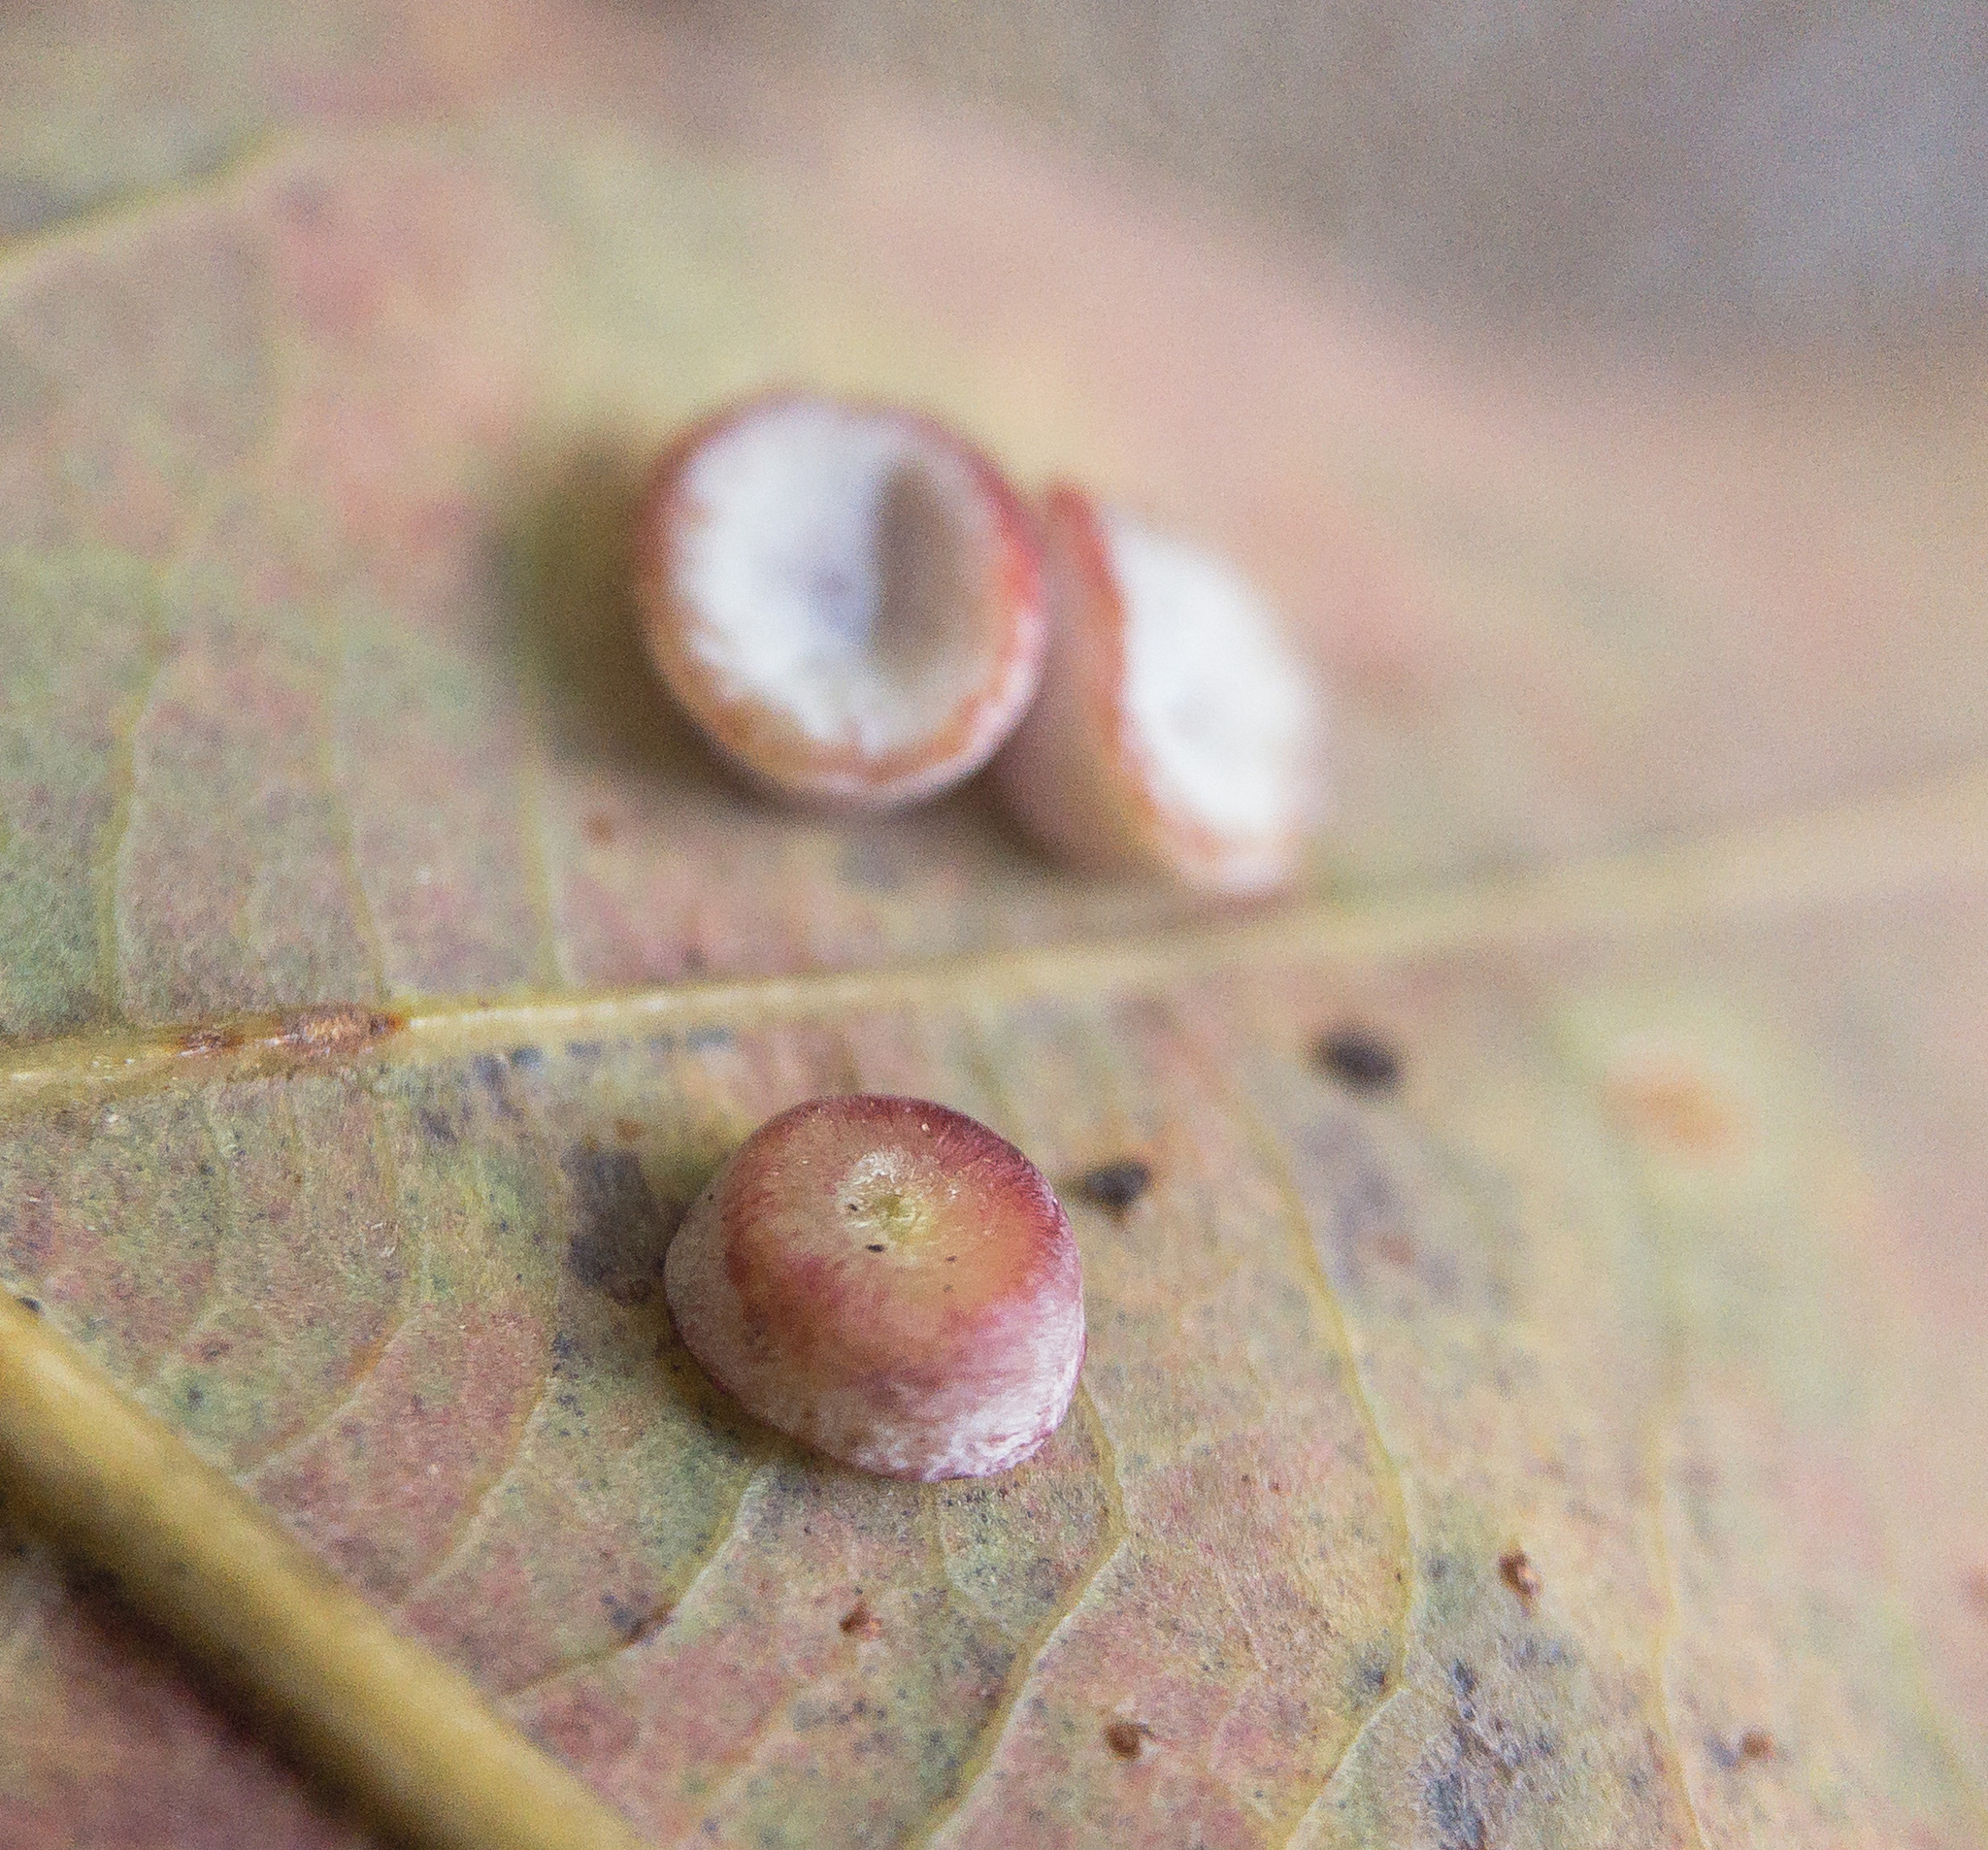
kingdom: Animalia
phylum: Arthropoda
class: Insecta
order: Hymenoptera
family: Cynipidae
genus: Phylloteras
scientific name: Phylloteras poculum
